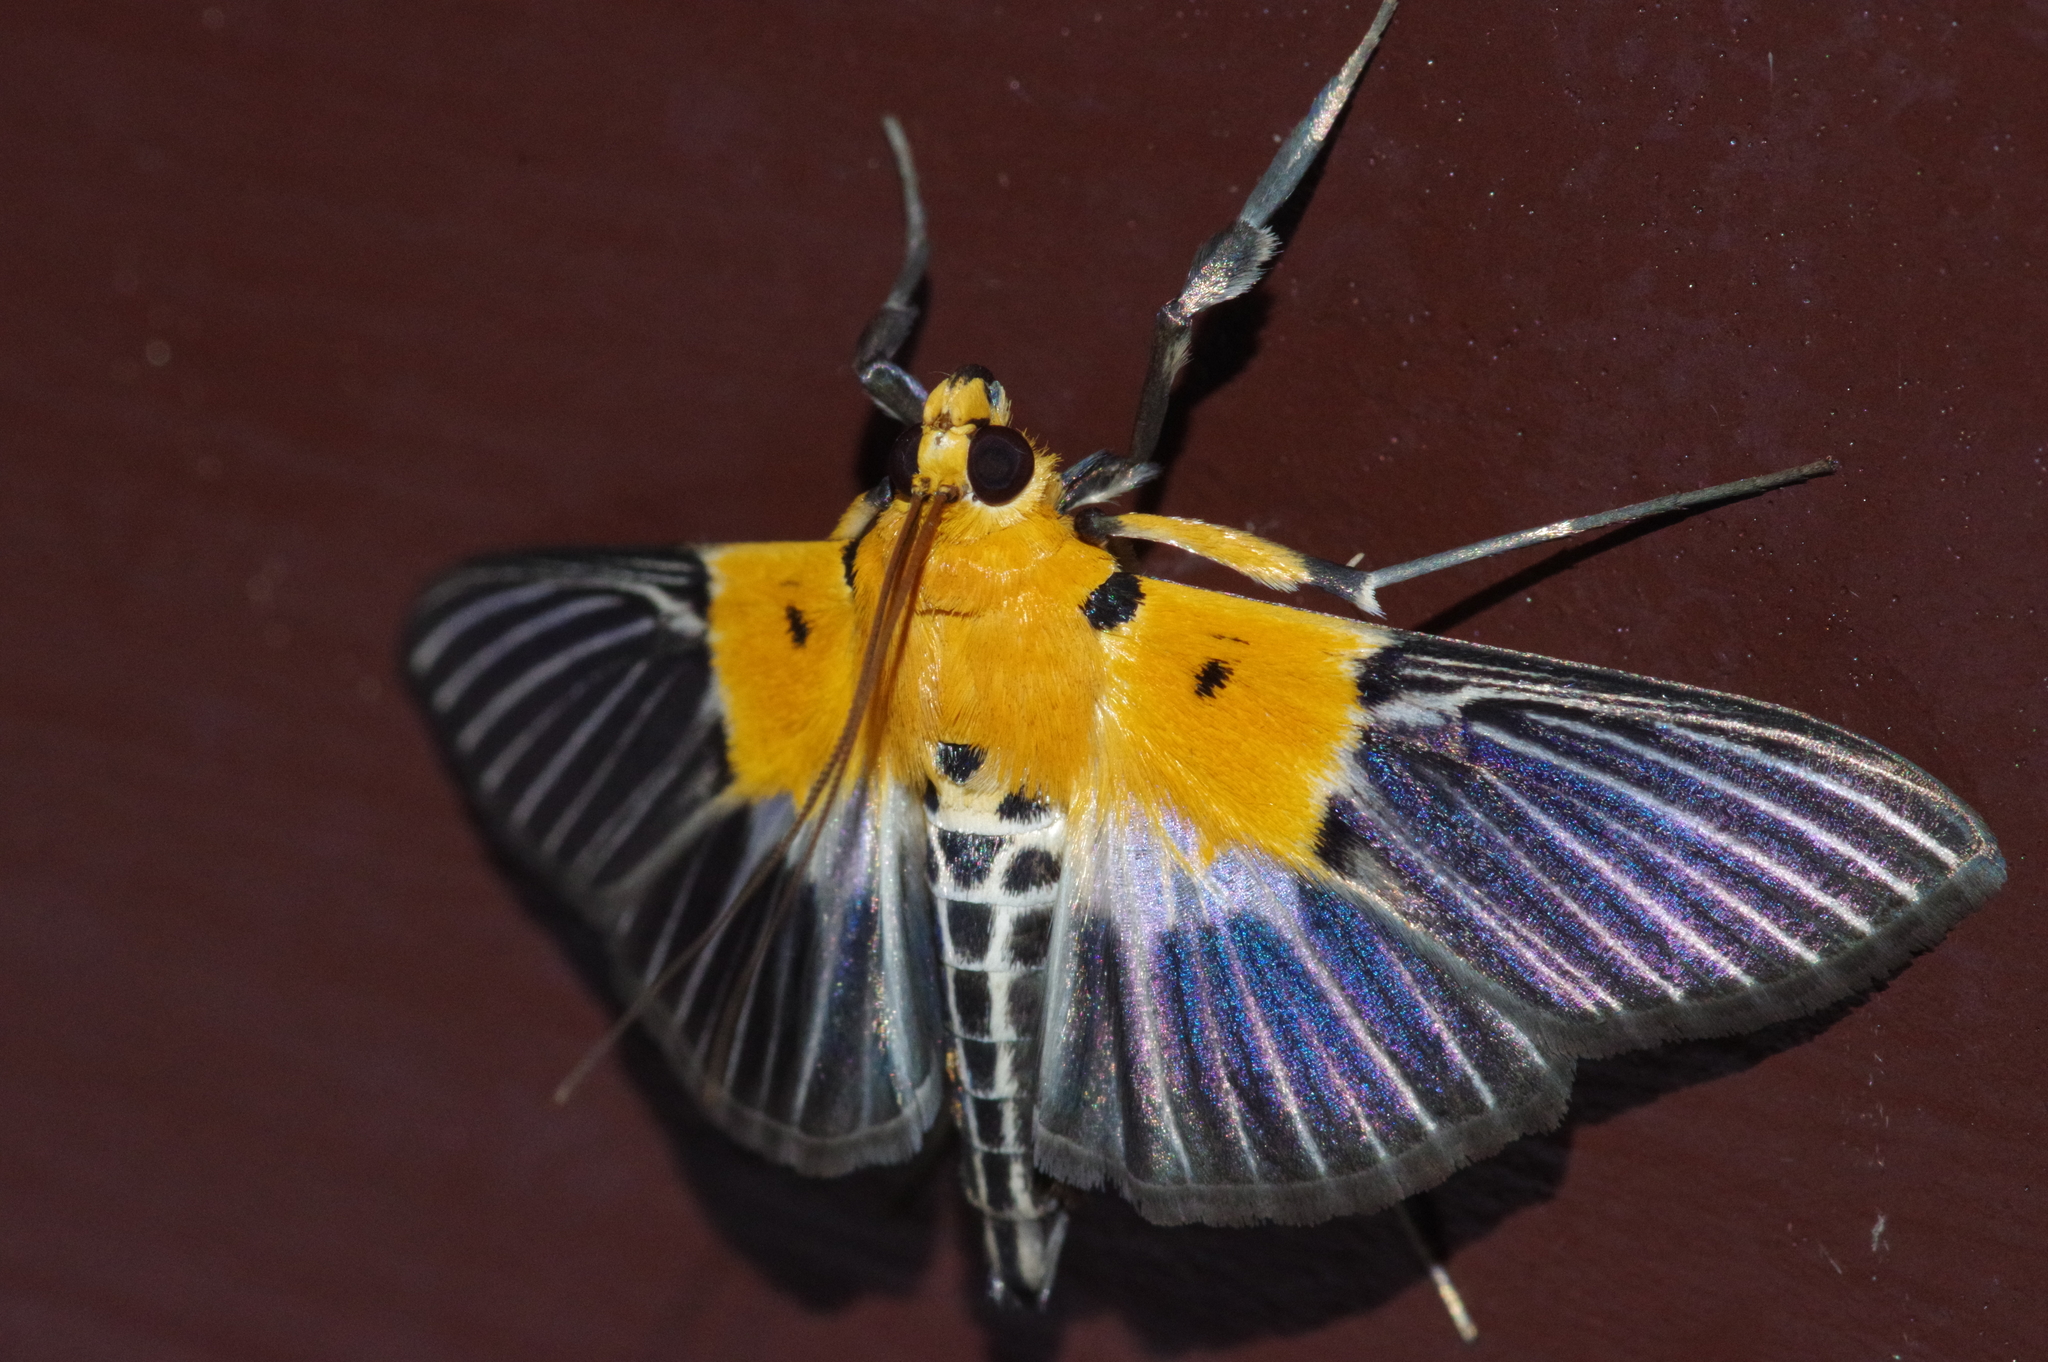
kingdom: Animalia
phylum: Arthropoda
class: Insecta
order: Lepidoptera
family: Crambidae
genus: Nevrina
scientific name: Nevrina procopia
